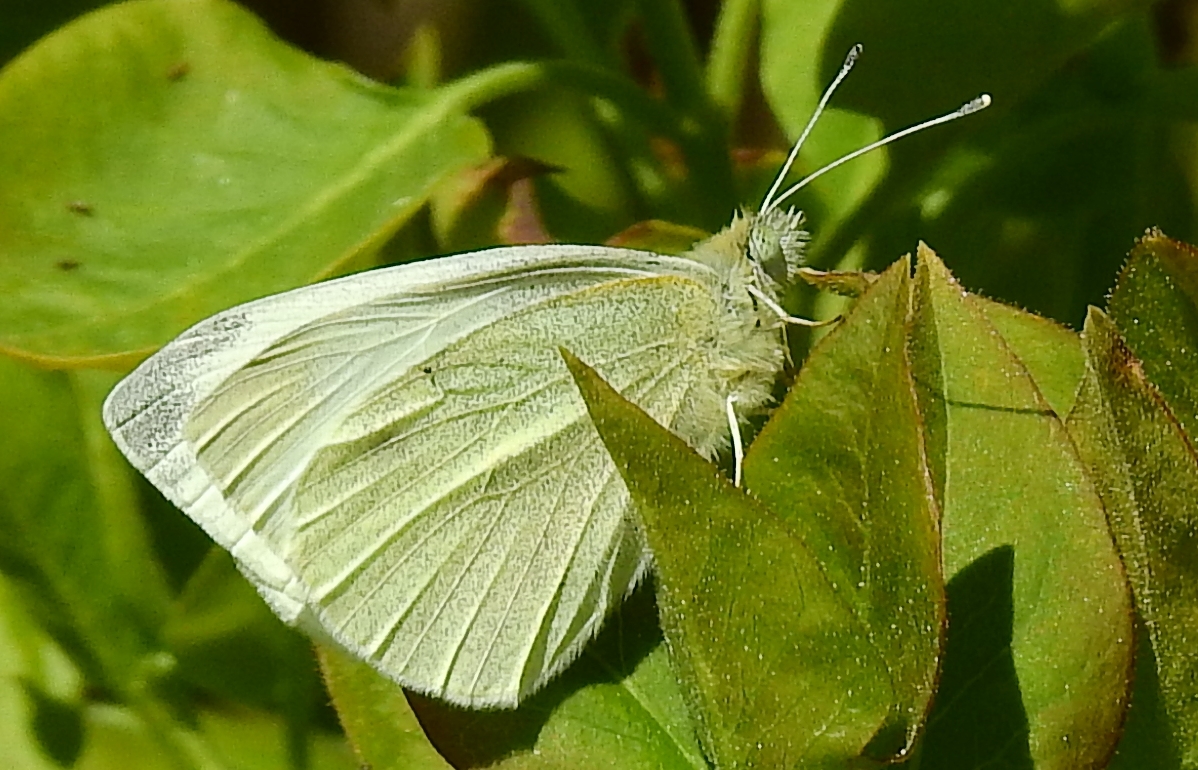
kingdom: Animalia
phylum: Arthropoda
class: Insecta
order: Lepidoptera
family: Pieridae
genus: Pieris
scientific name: Pieris rapae
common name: Small white
